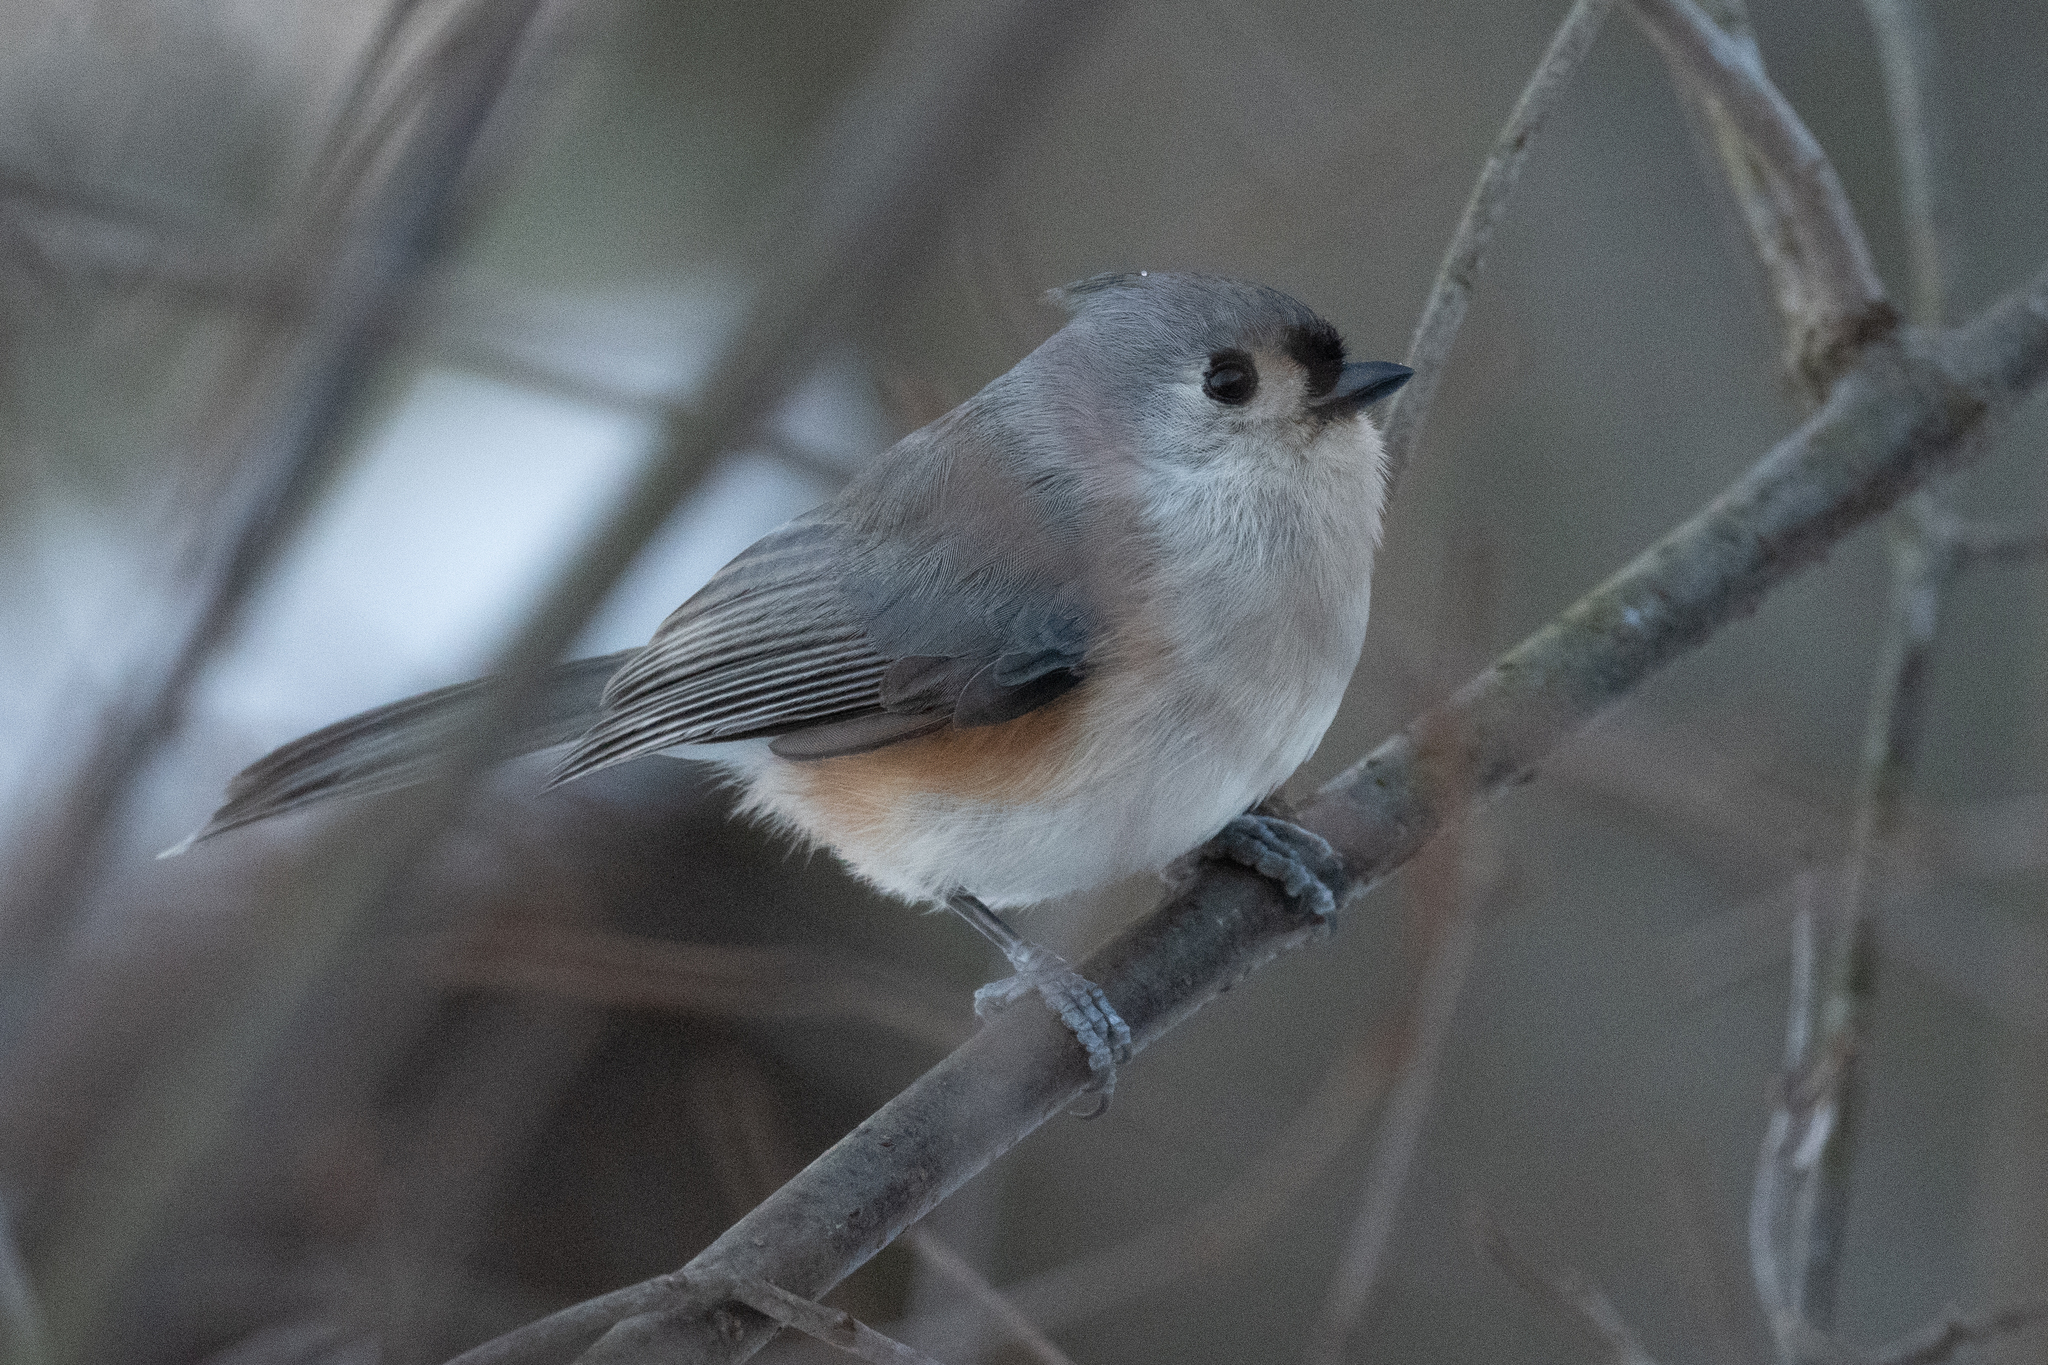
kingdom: Animalia
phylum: Chordata
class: Aves
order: Passeriformes
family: Paridae
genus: Baeolophus
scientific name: Baeolophus bicolor
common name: Tufted titmouse
